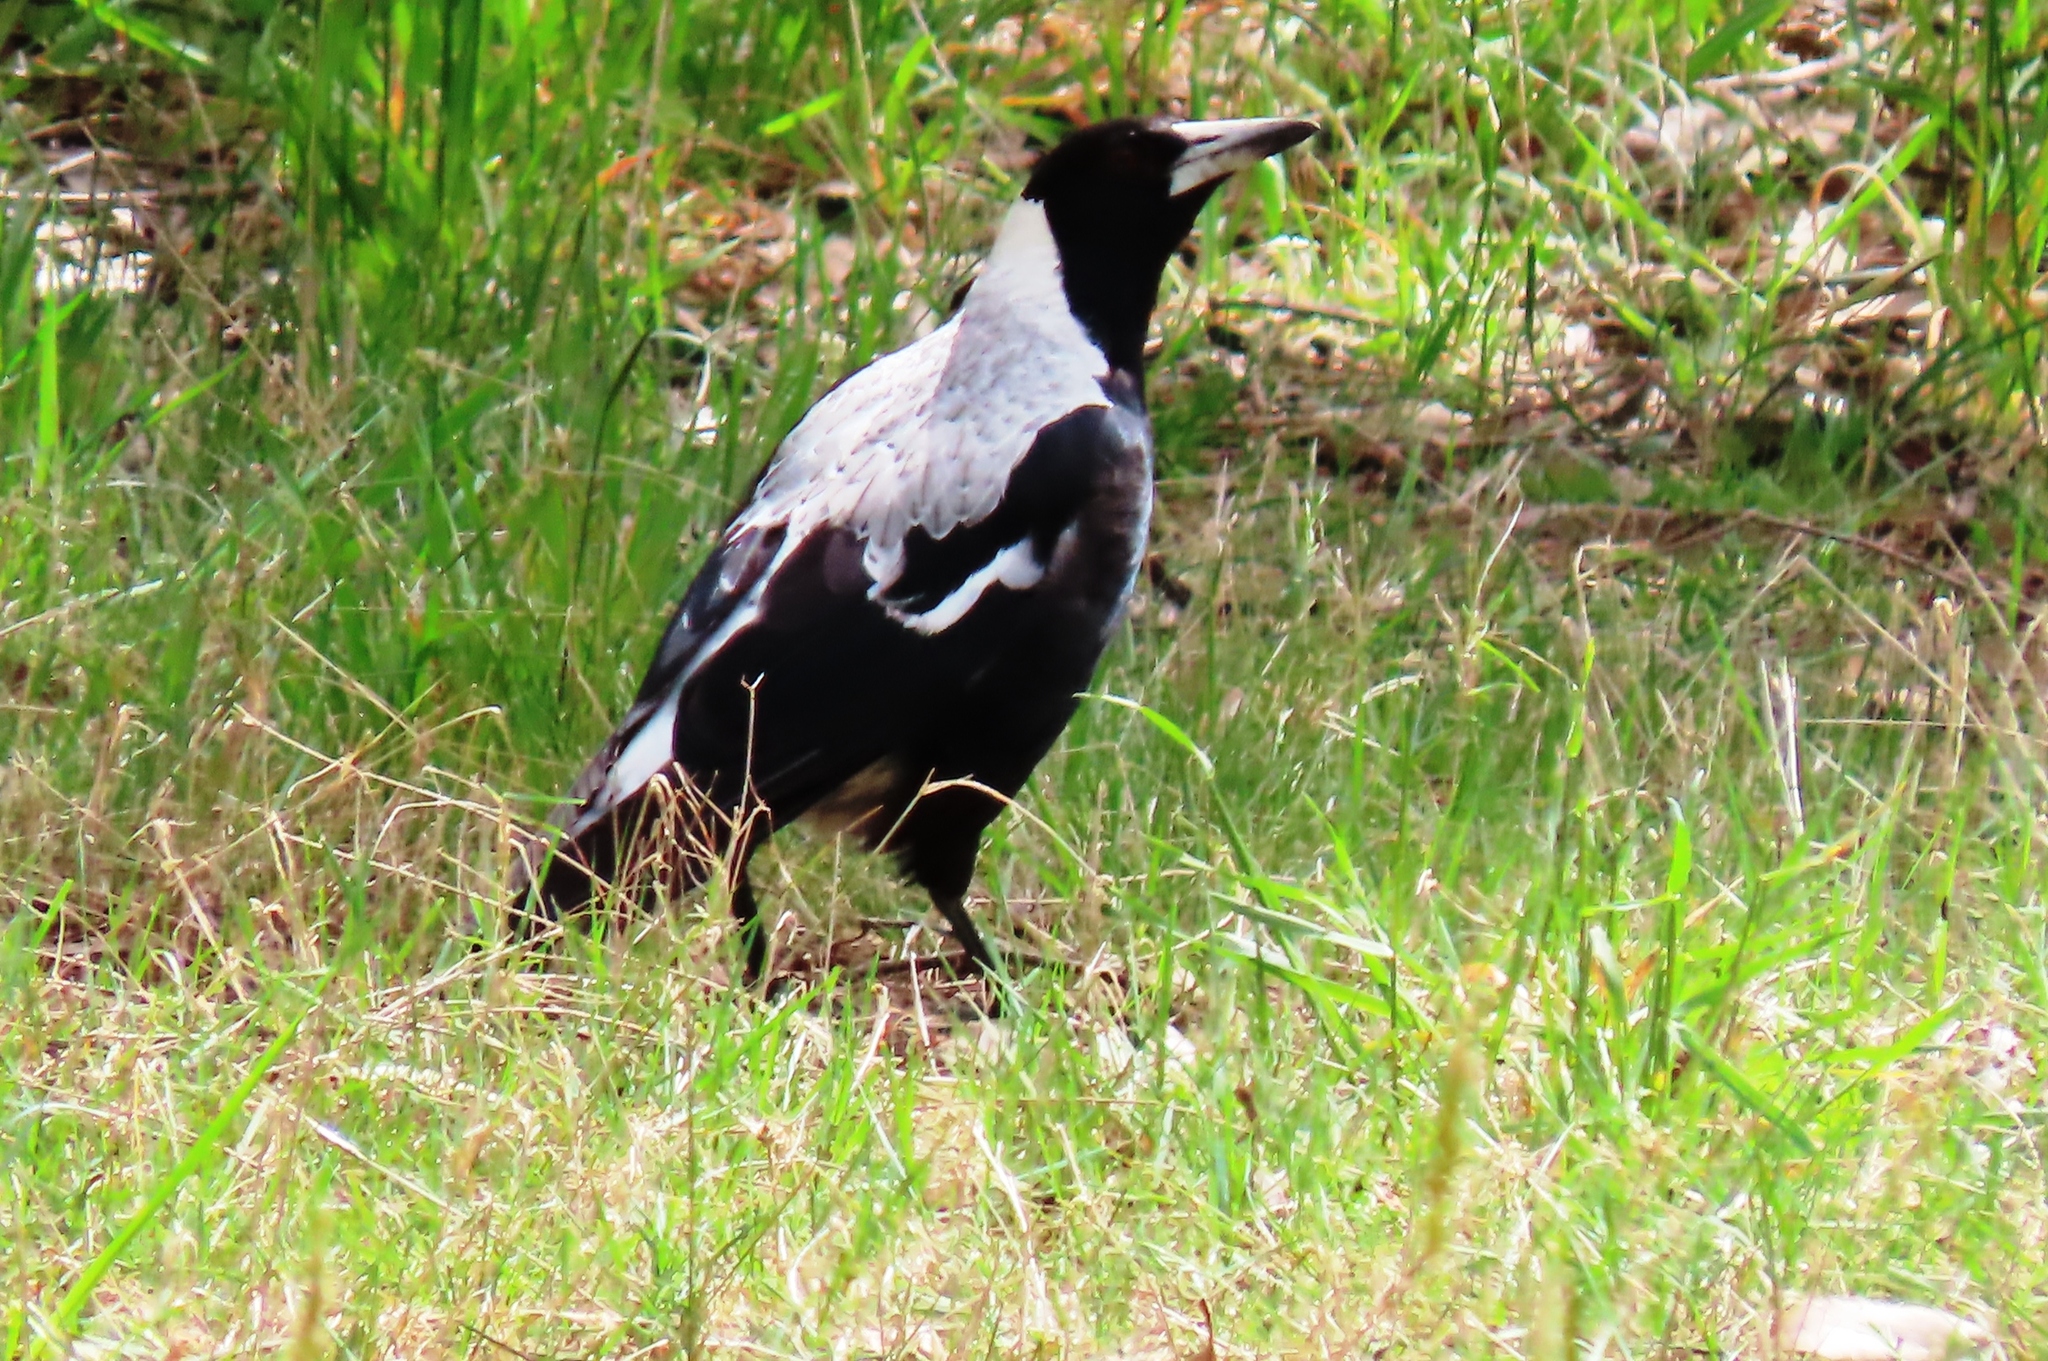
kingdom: Animalia
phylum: Chordata
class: Aves
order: Passeriformes
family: Cracticidae
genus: Gymnorhina
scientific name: Gymnorhina tibicen
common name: Australian magpie
